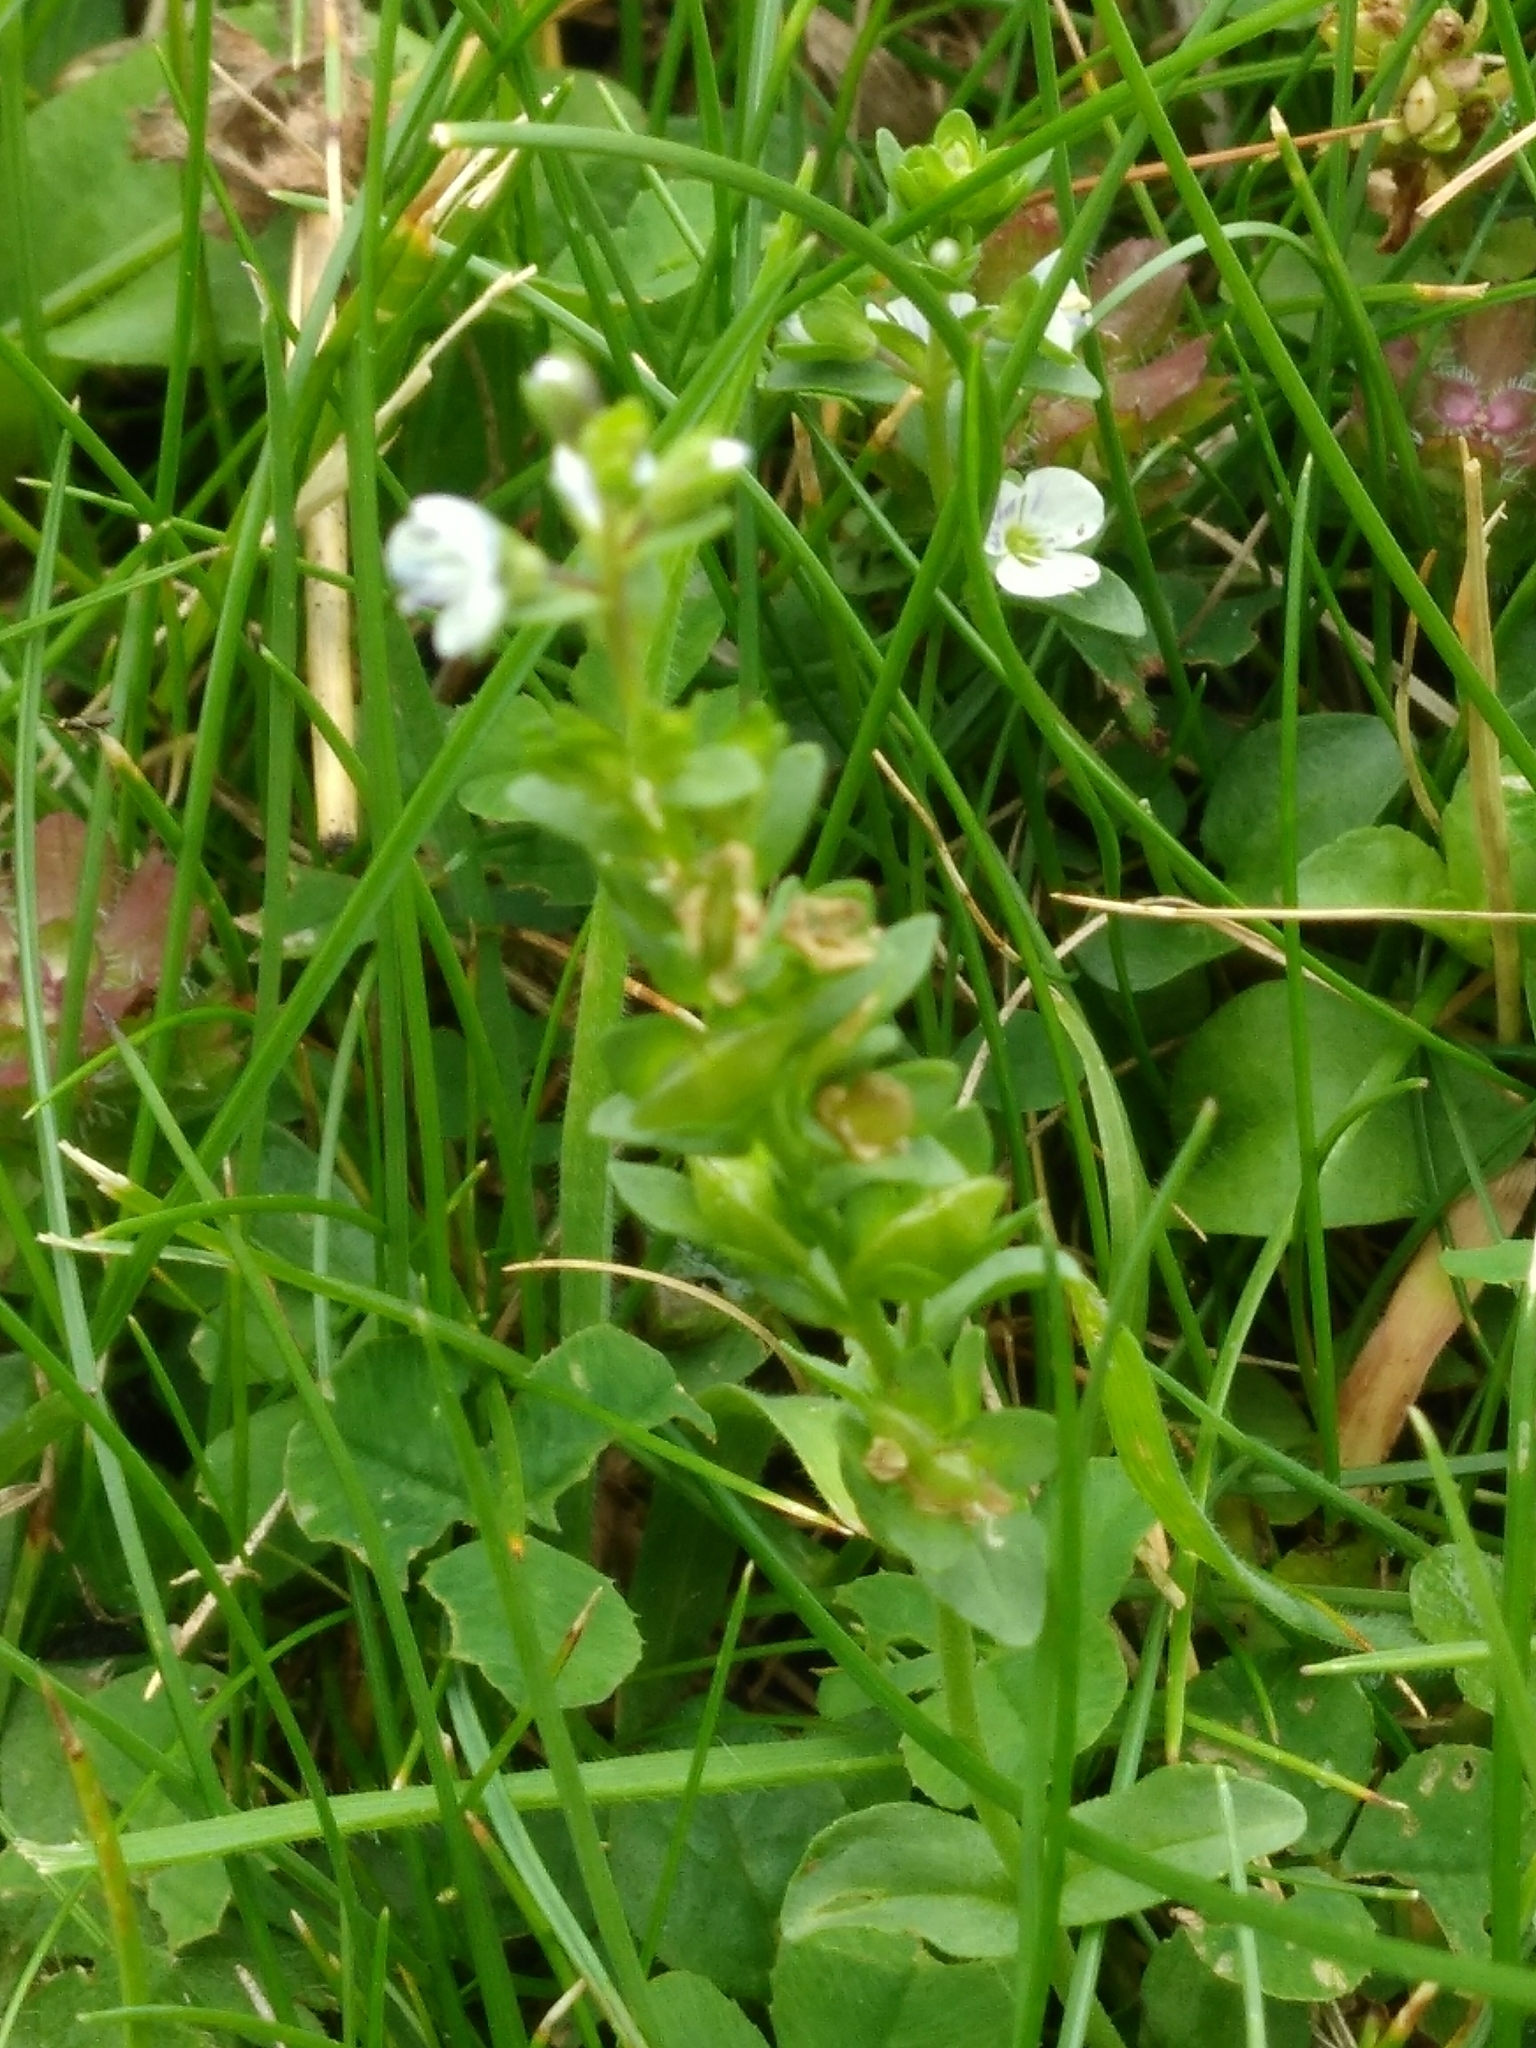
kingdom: Plantae
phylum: Tracheophyta
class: Magnoliopsida
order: Lamiales
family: Plantaginaceae
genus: Veronica
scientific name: Veronica serpyllifolia
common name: Thyme-leaved speedwell
